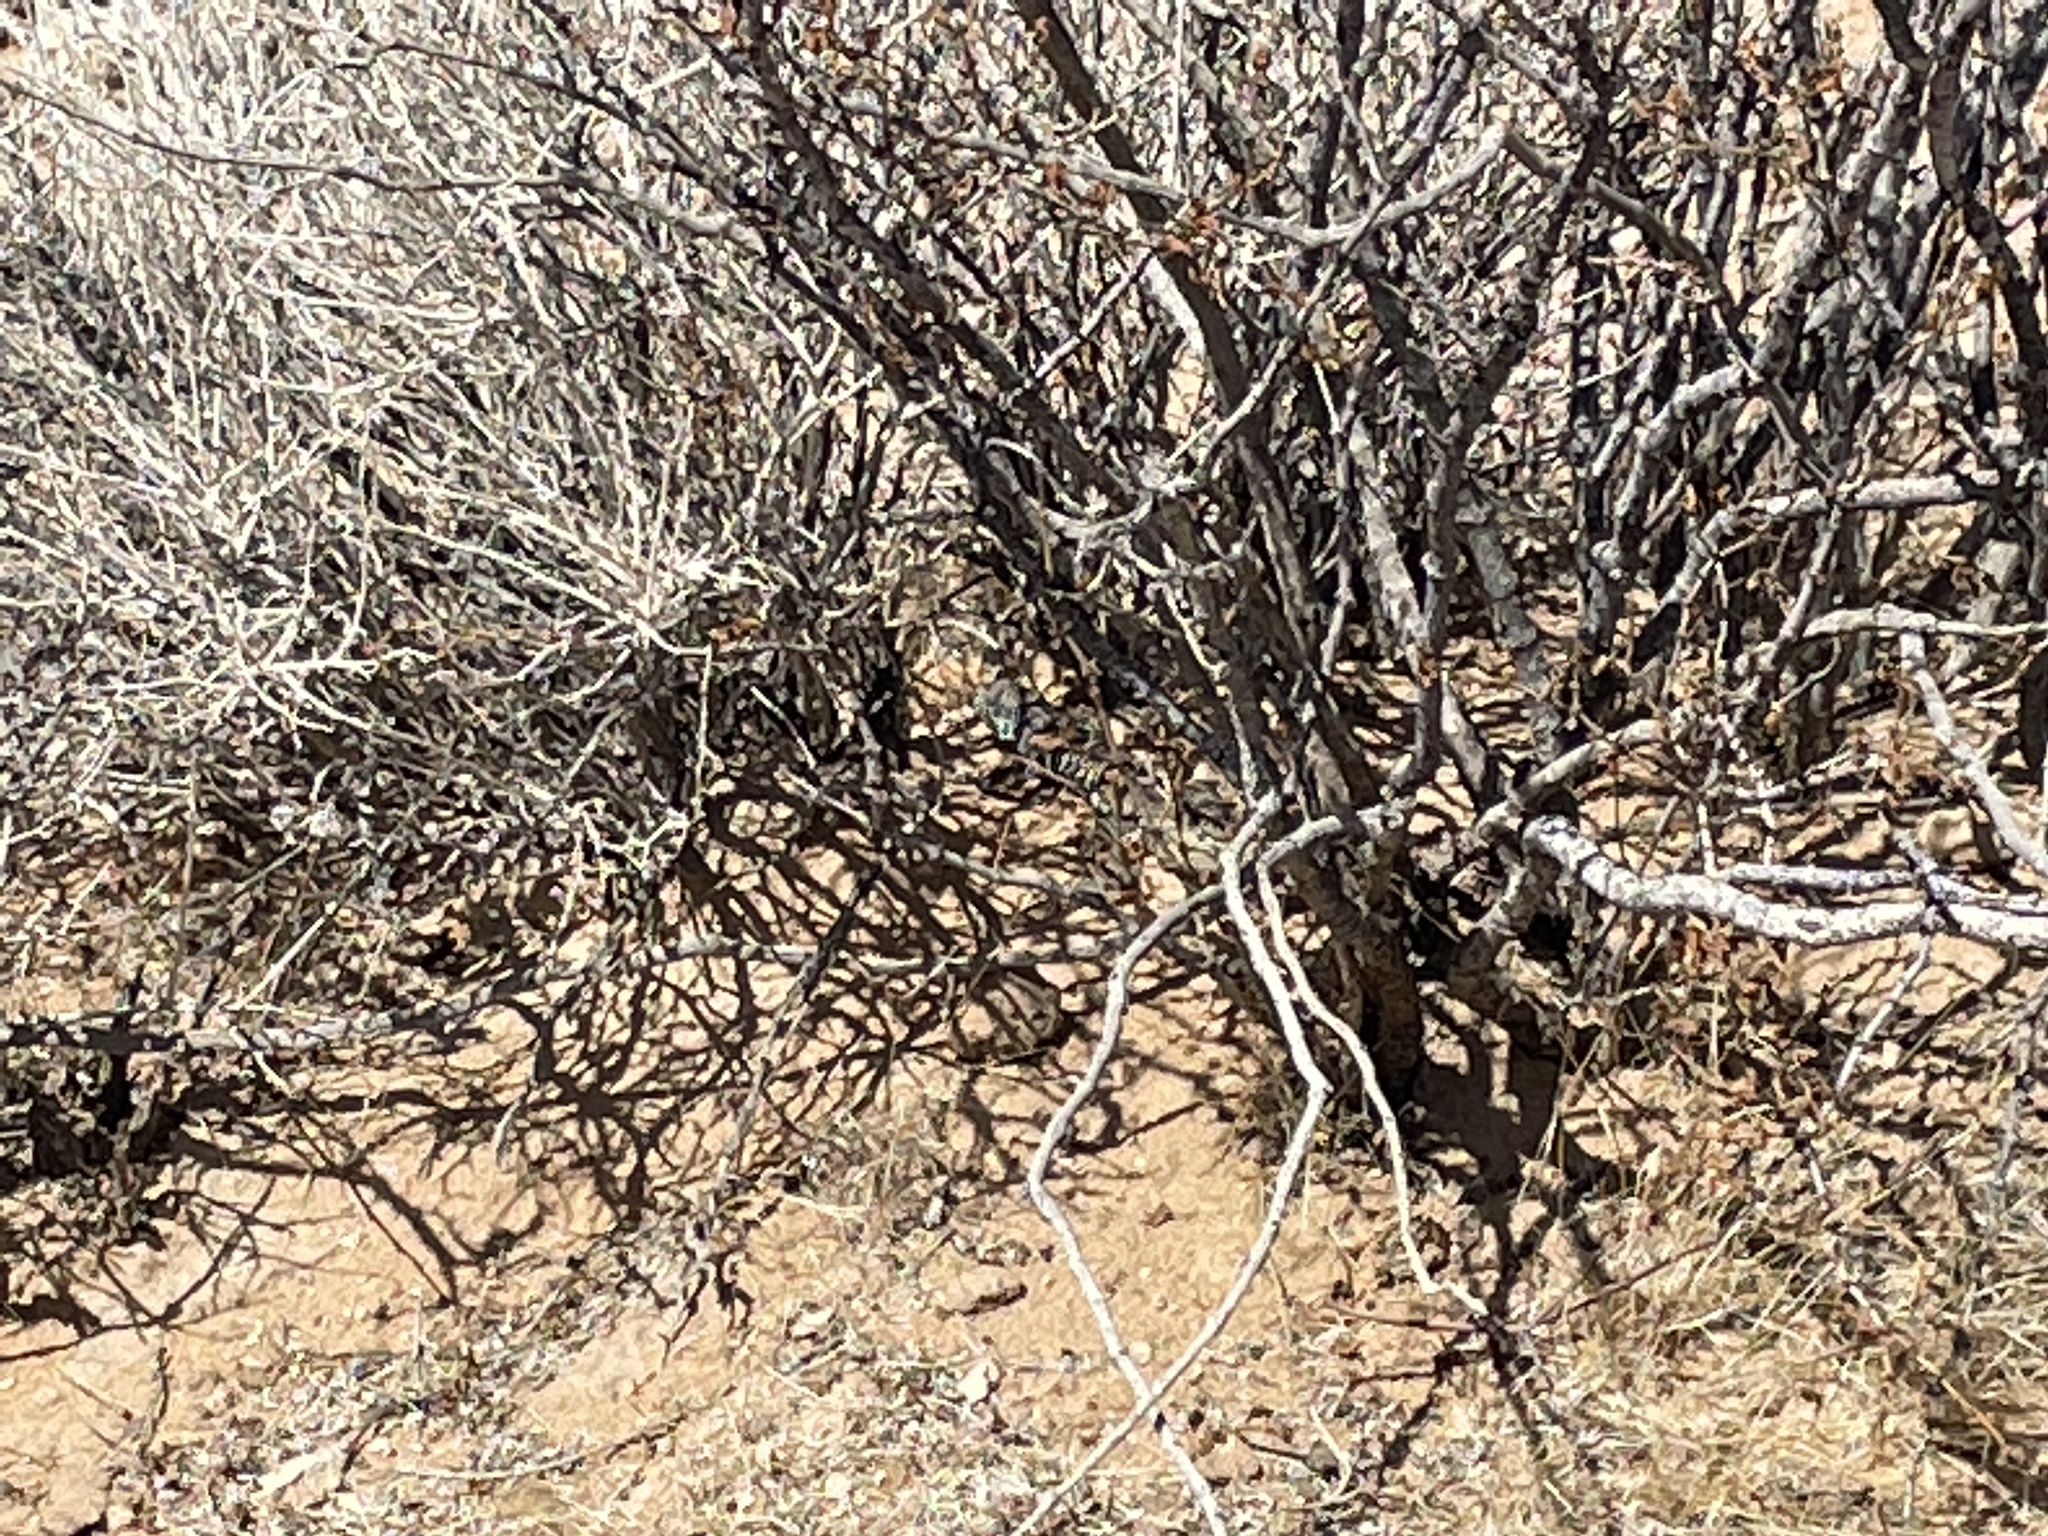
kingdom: Animalia
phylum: Chordata
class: Squamata
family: Teiidae
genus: Aspidoscelis
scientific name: Aspidoscelis tigris
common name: Tiger whiptail
